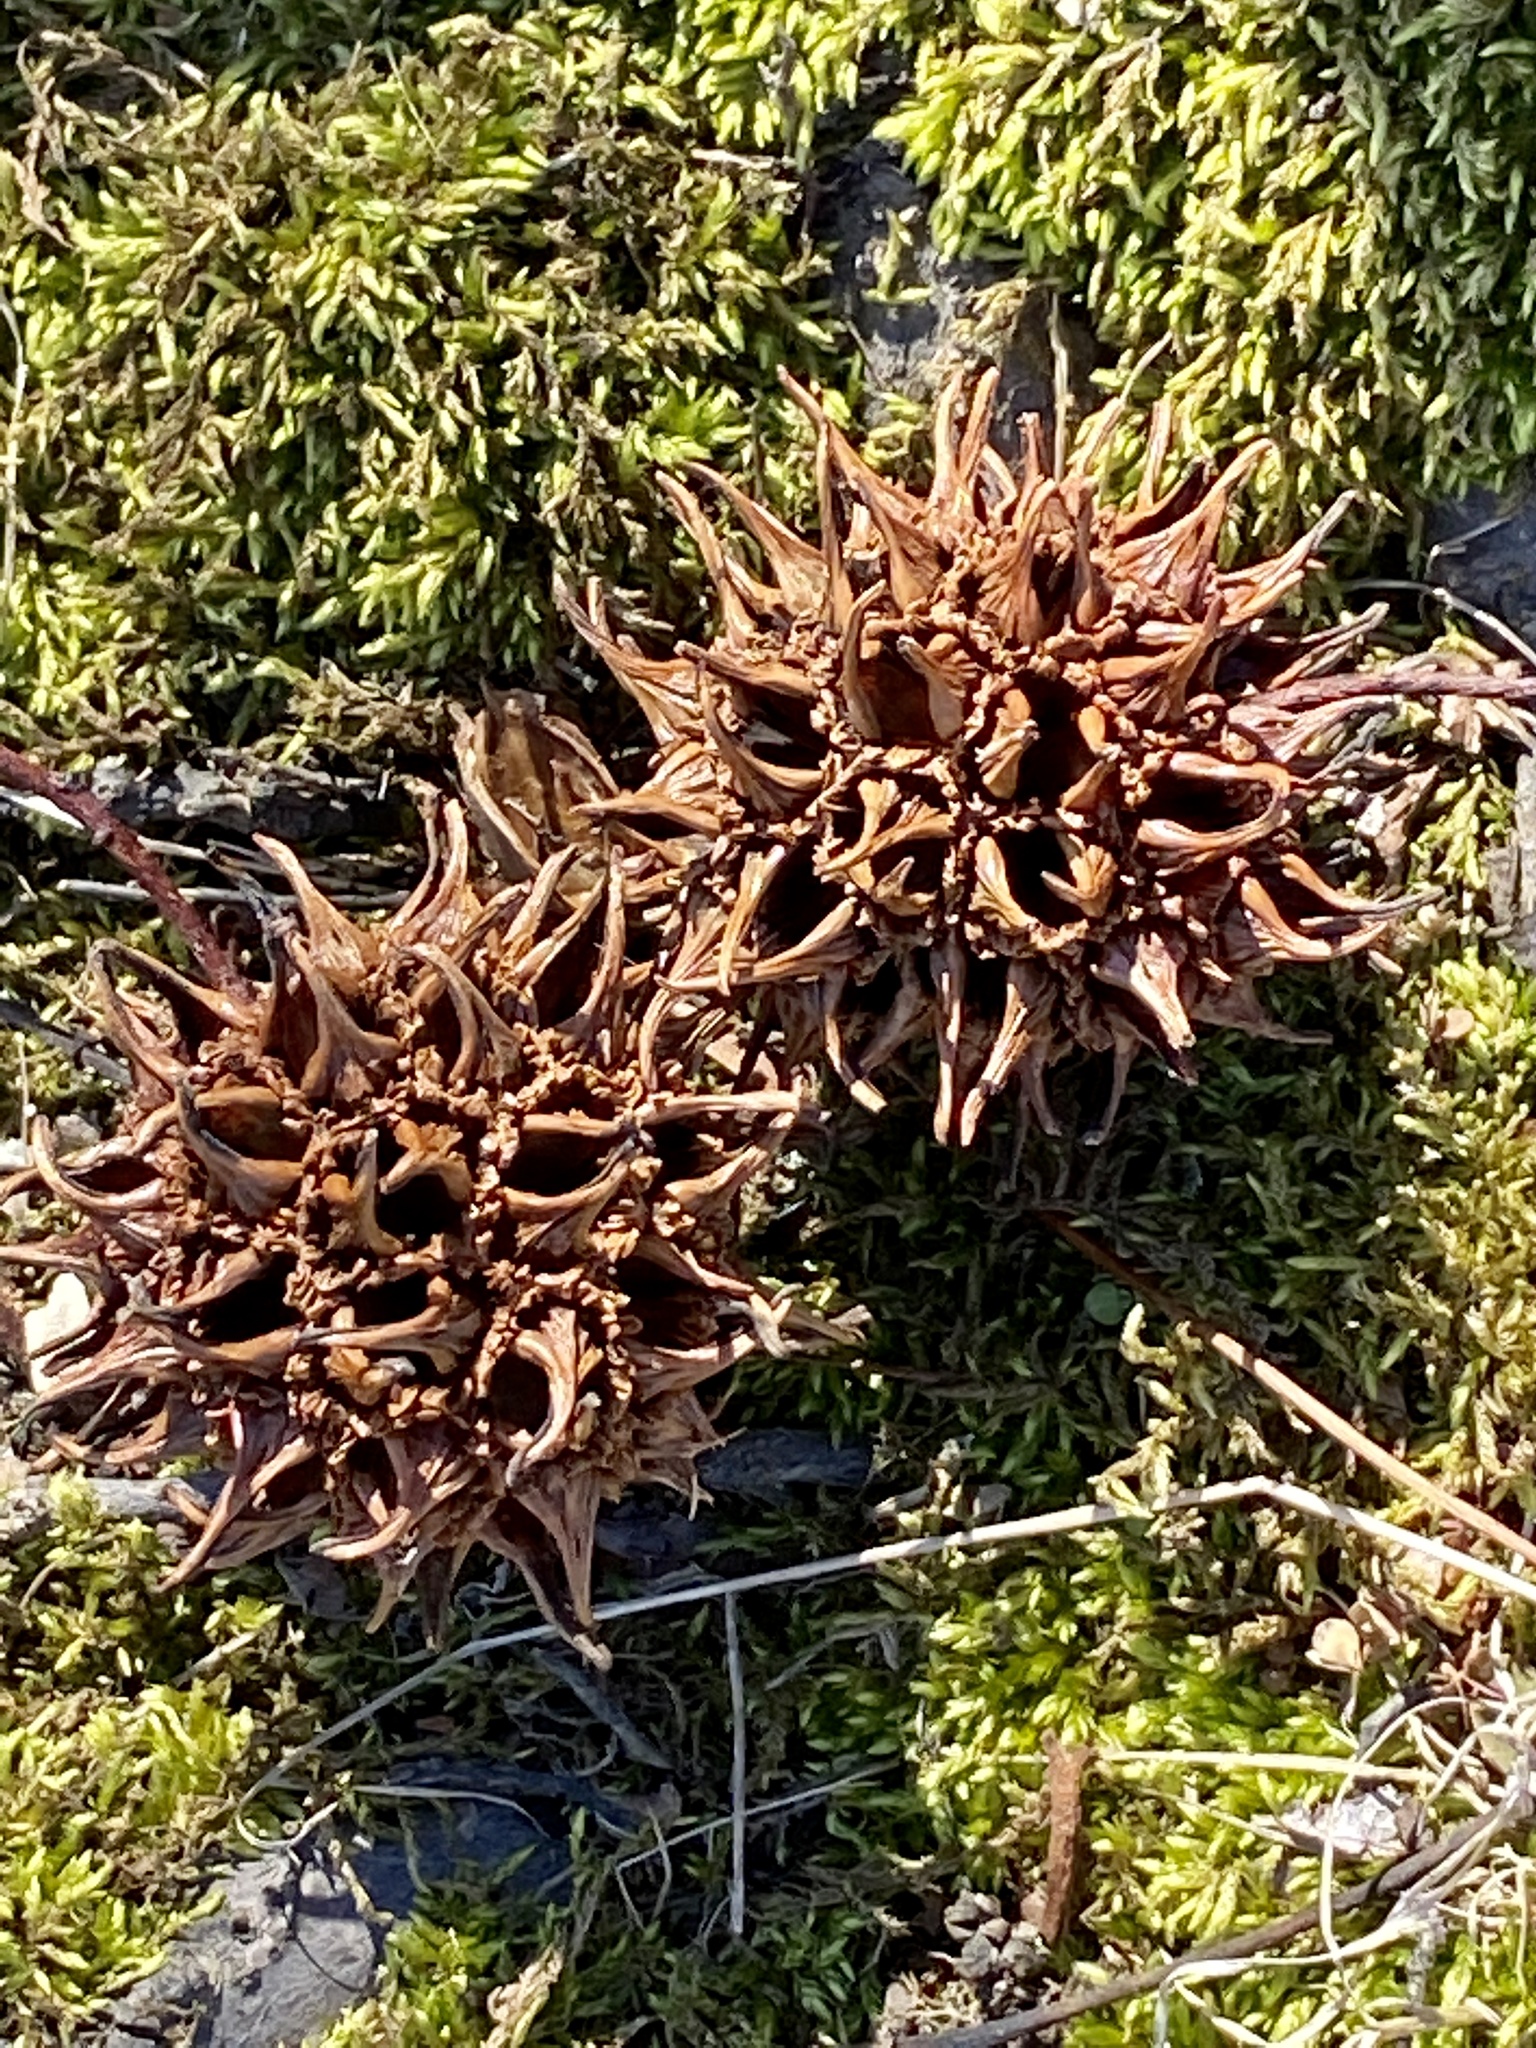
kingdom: Plantae
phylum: Tracheophyta
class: Magnoliopsida
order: Saxifragales
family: Altingiaceae
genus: Liquidambar
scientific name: Liquidambar styraciflua
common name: Sweet gum
